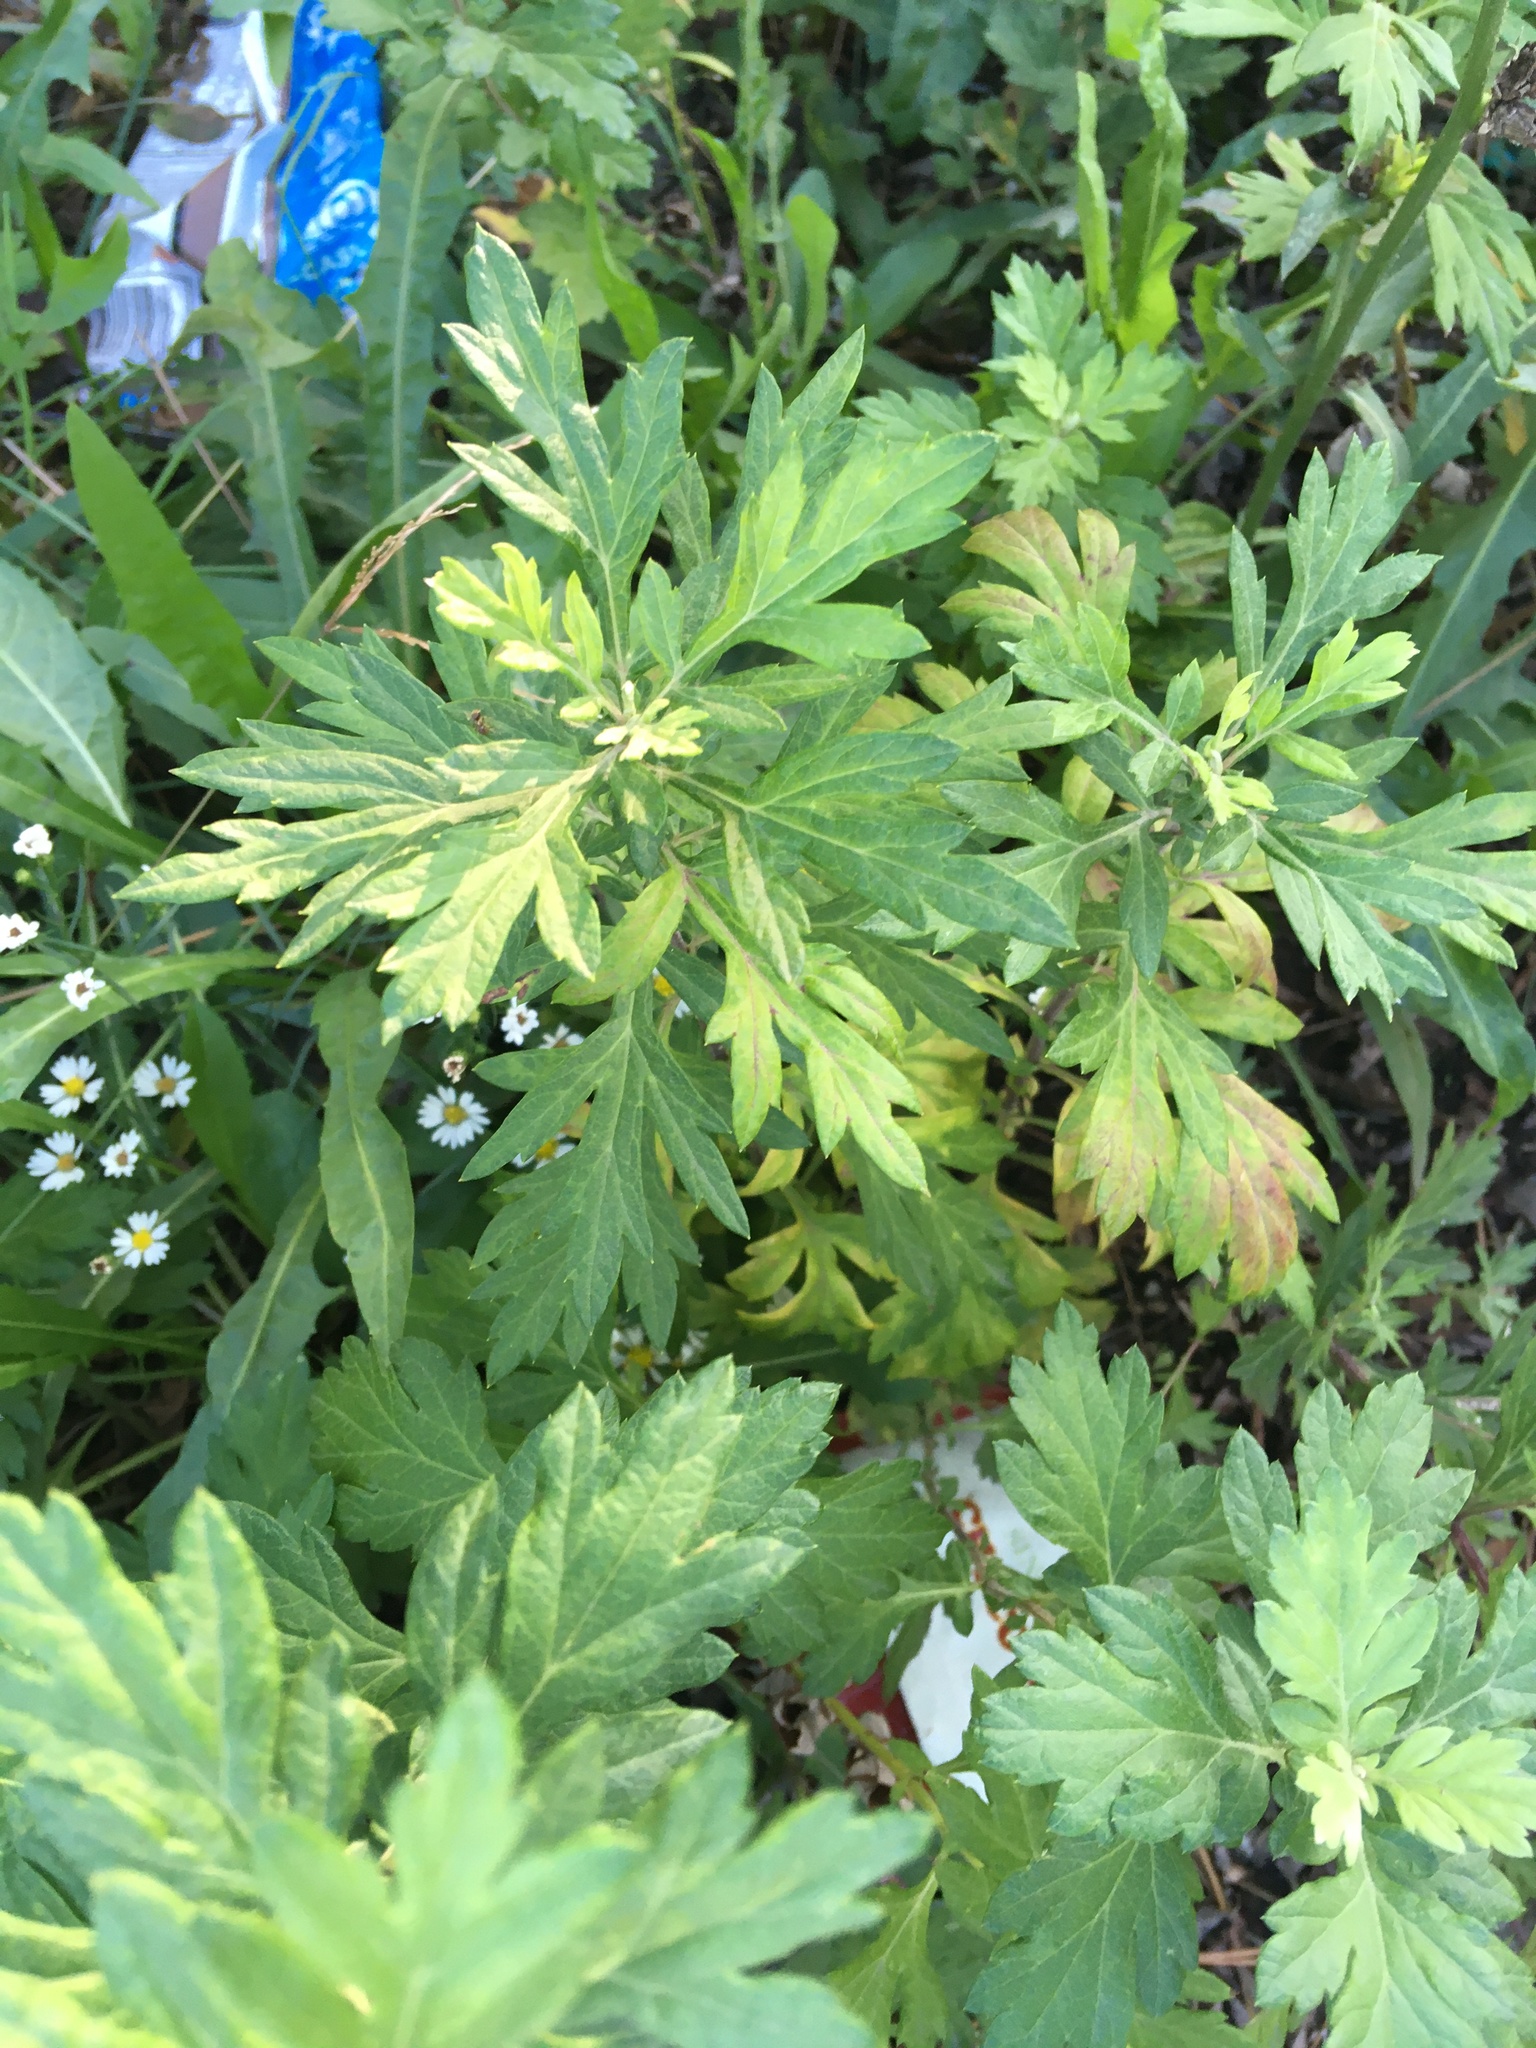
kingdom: Plantae
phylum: Tracheophyta
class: Magnoliopsida
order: Asterales
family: Asteraceae
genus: Artemisia
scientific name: Artemisia vulgaris
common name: Mugwort
